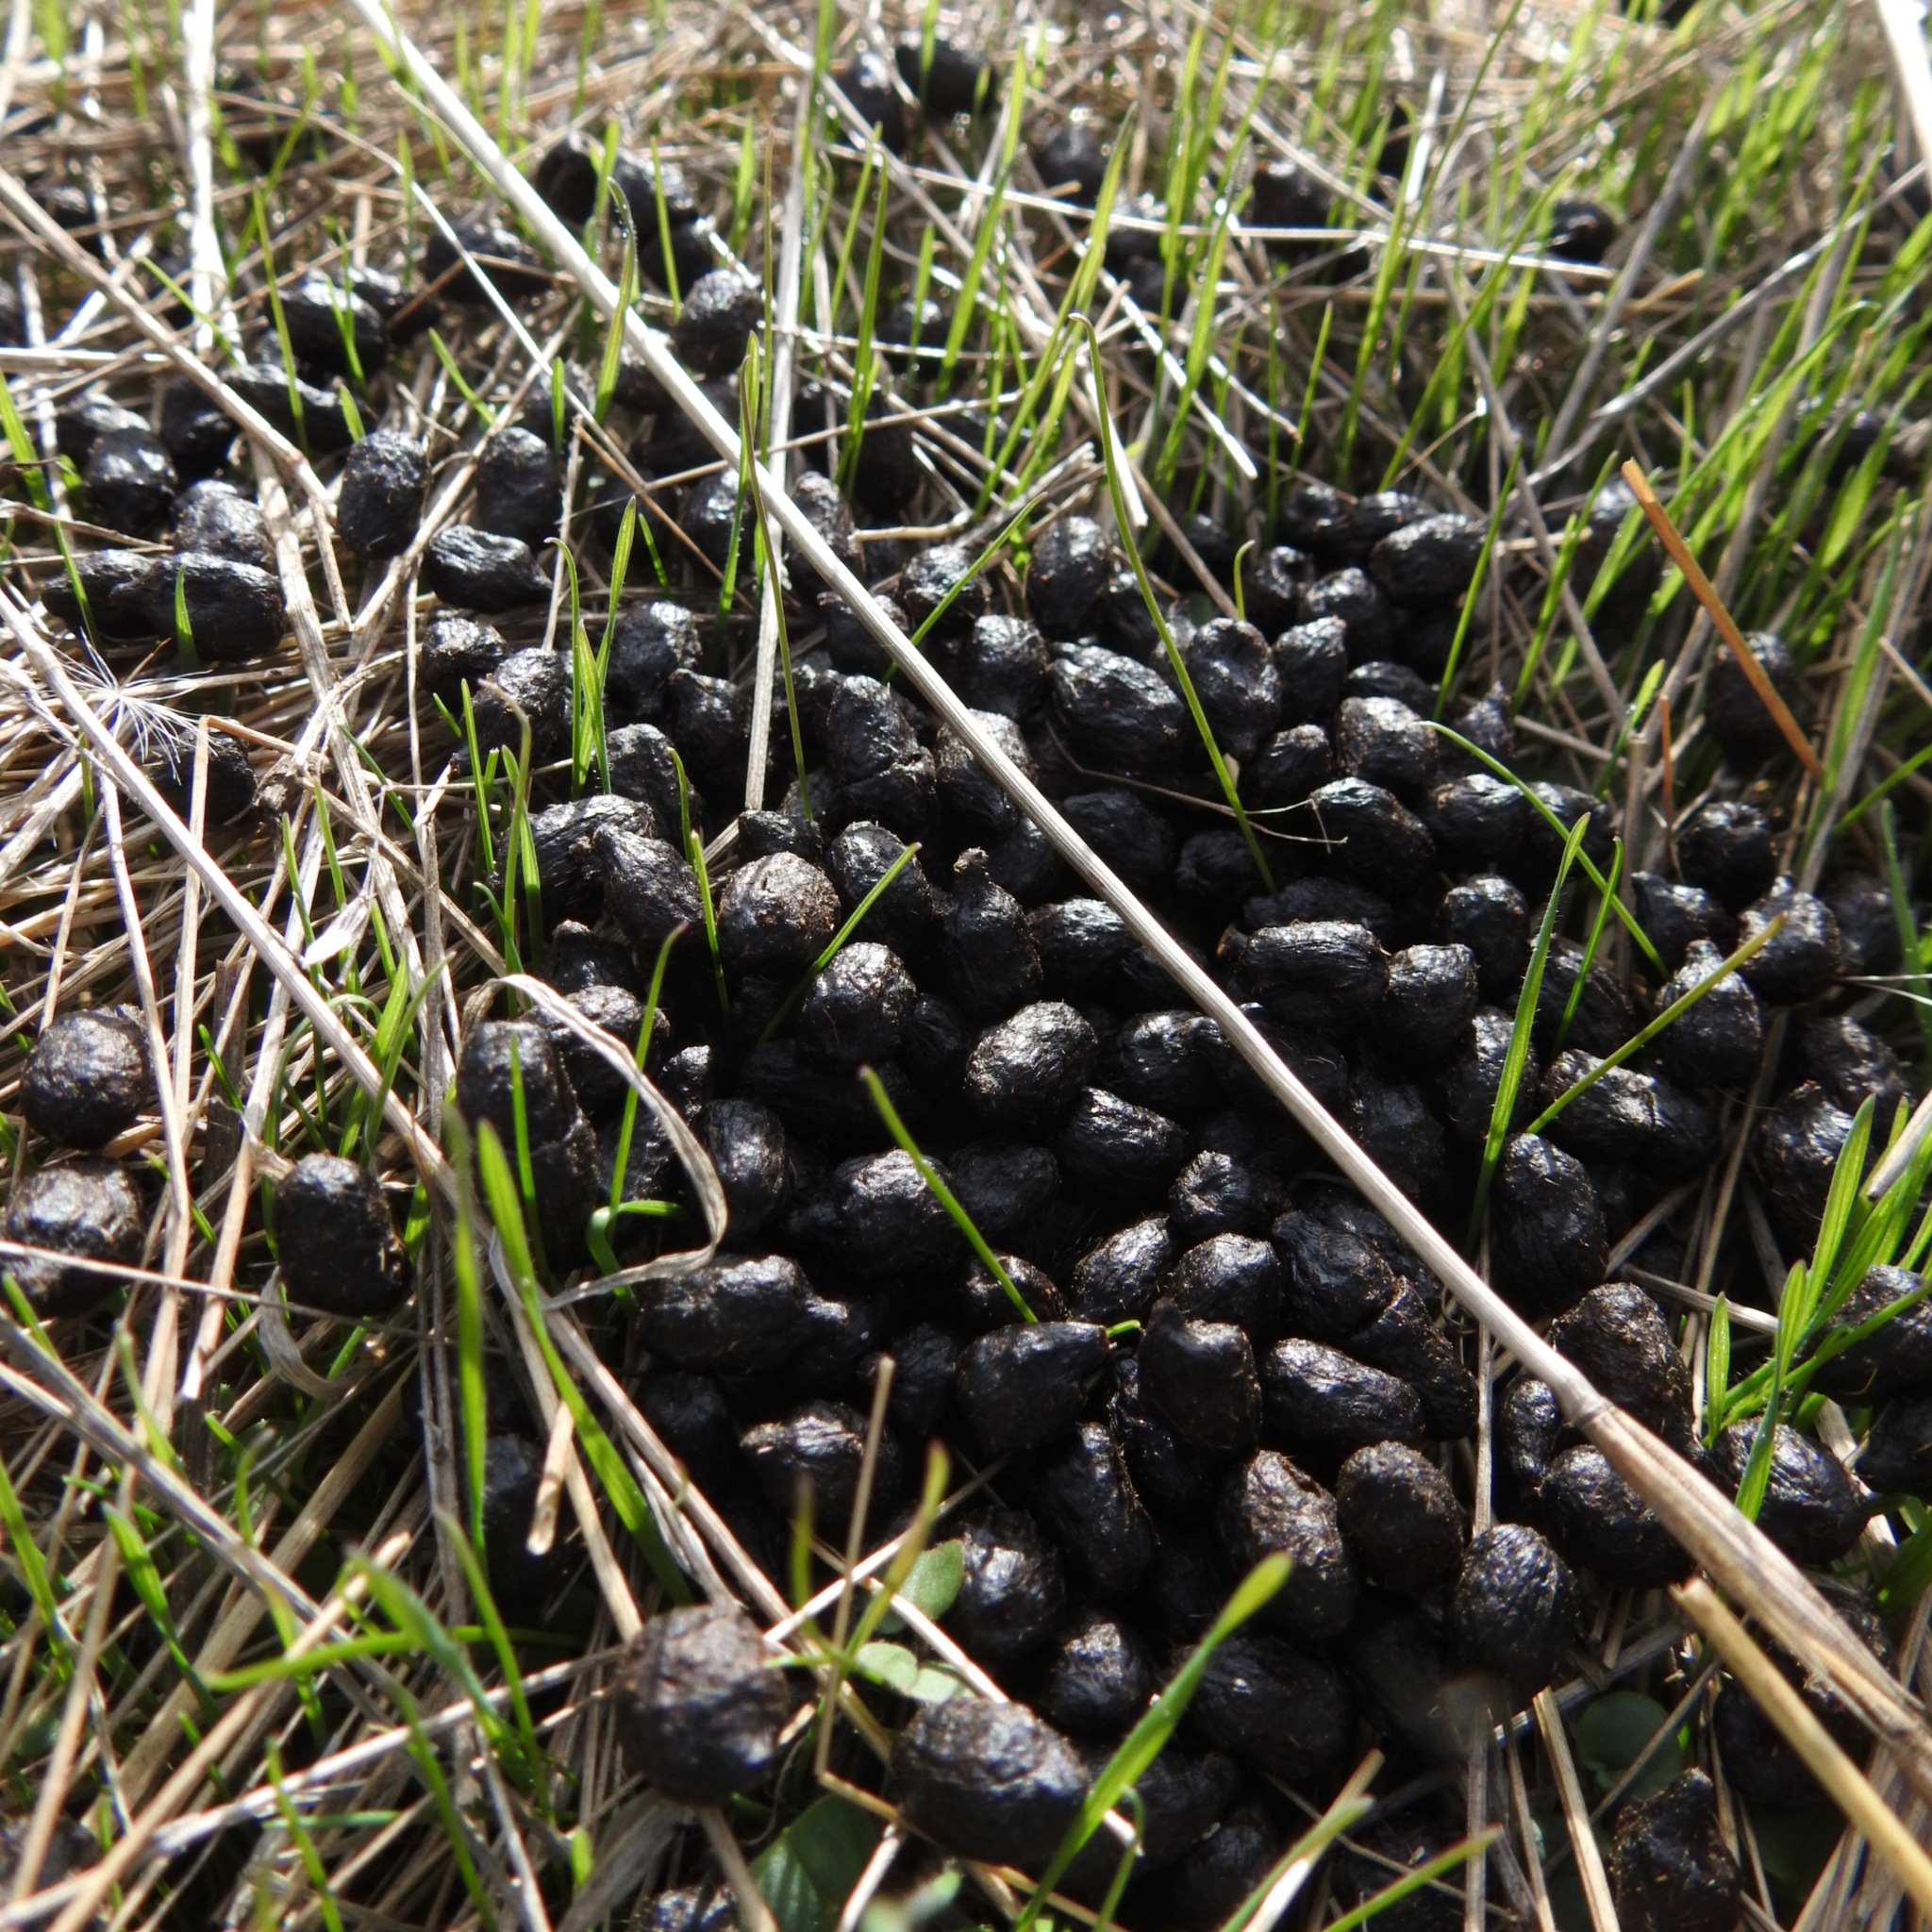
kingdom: Animalia
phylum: Chordata
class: Mammalia
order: Artiodactyla
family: Cervidae
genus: Odocoileus
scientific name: Odocoileus hemionus
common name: Mule deer
